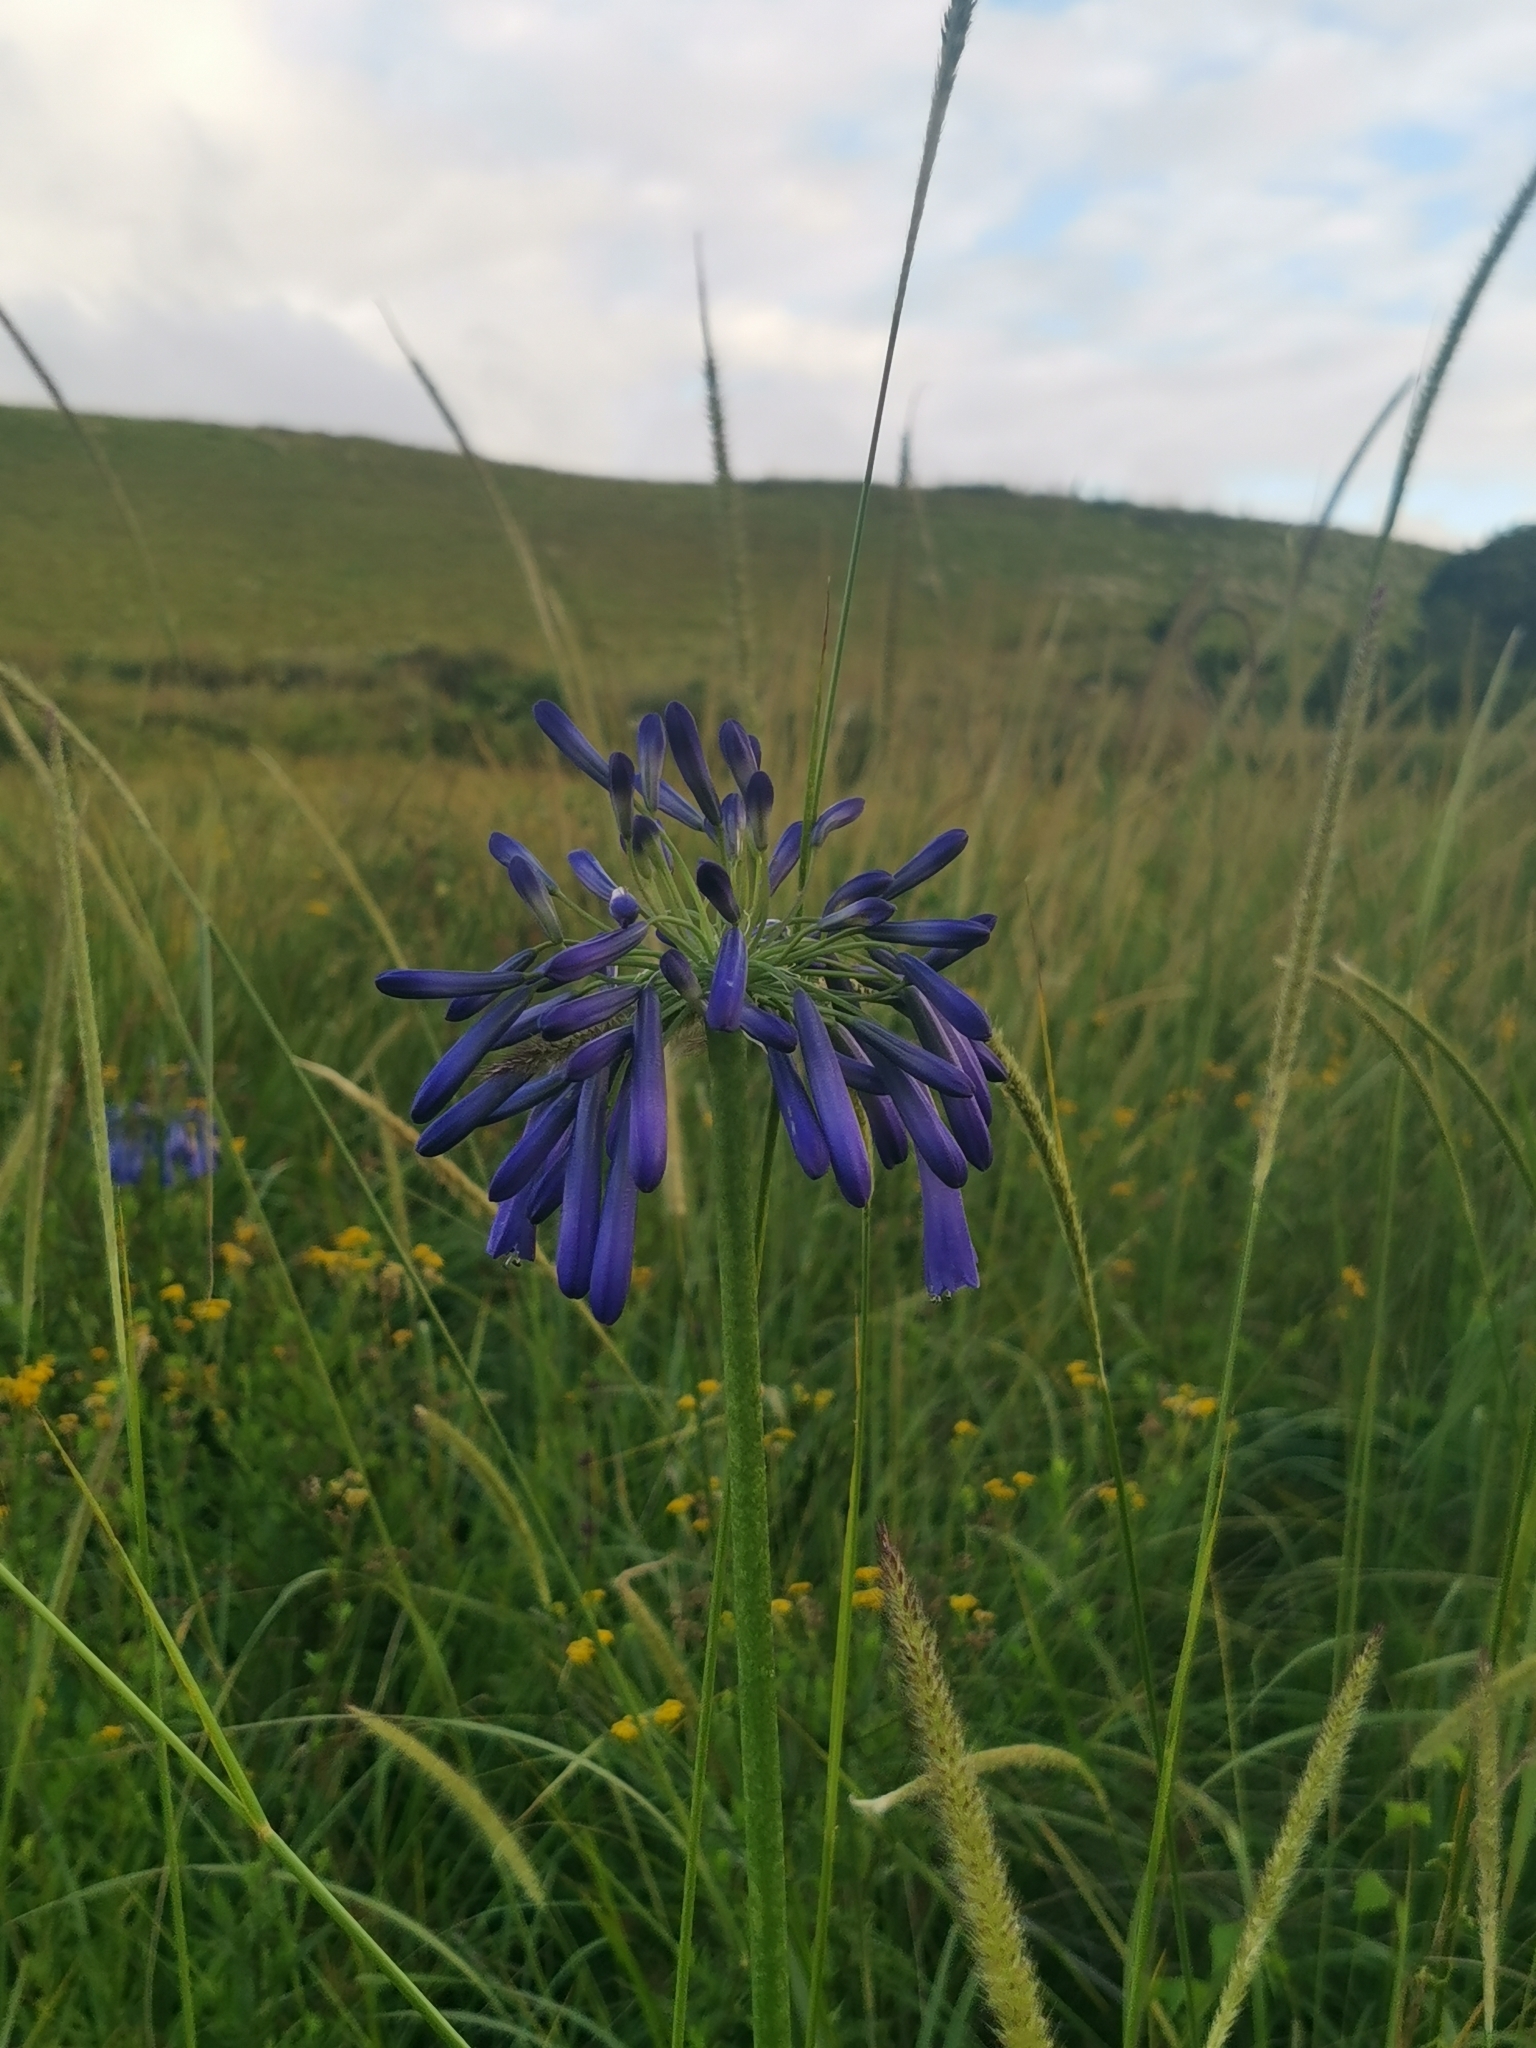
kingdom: Plantae
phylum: Tracheophyta
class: Liliopsida
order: Asparagales
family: Amaryllidaceae
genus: Agapanthus
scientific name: Agapanthus inapertus
